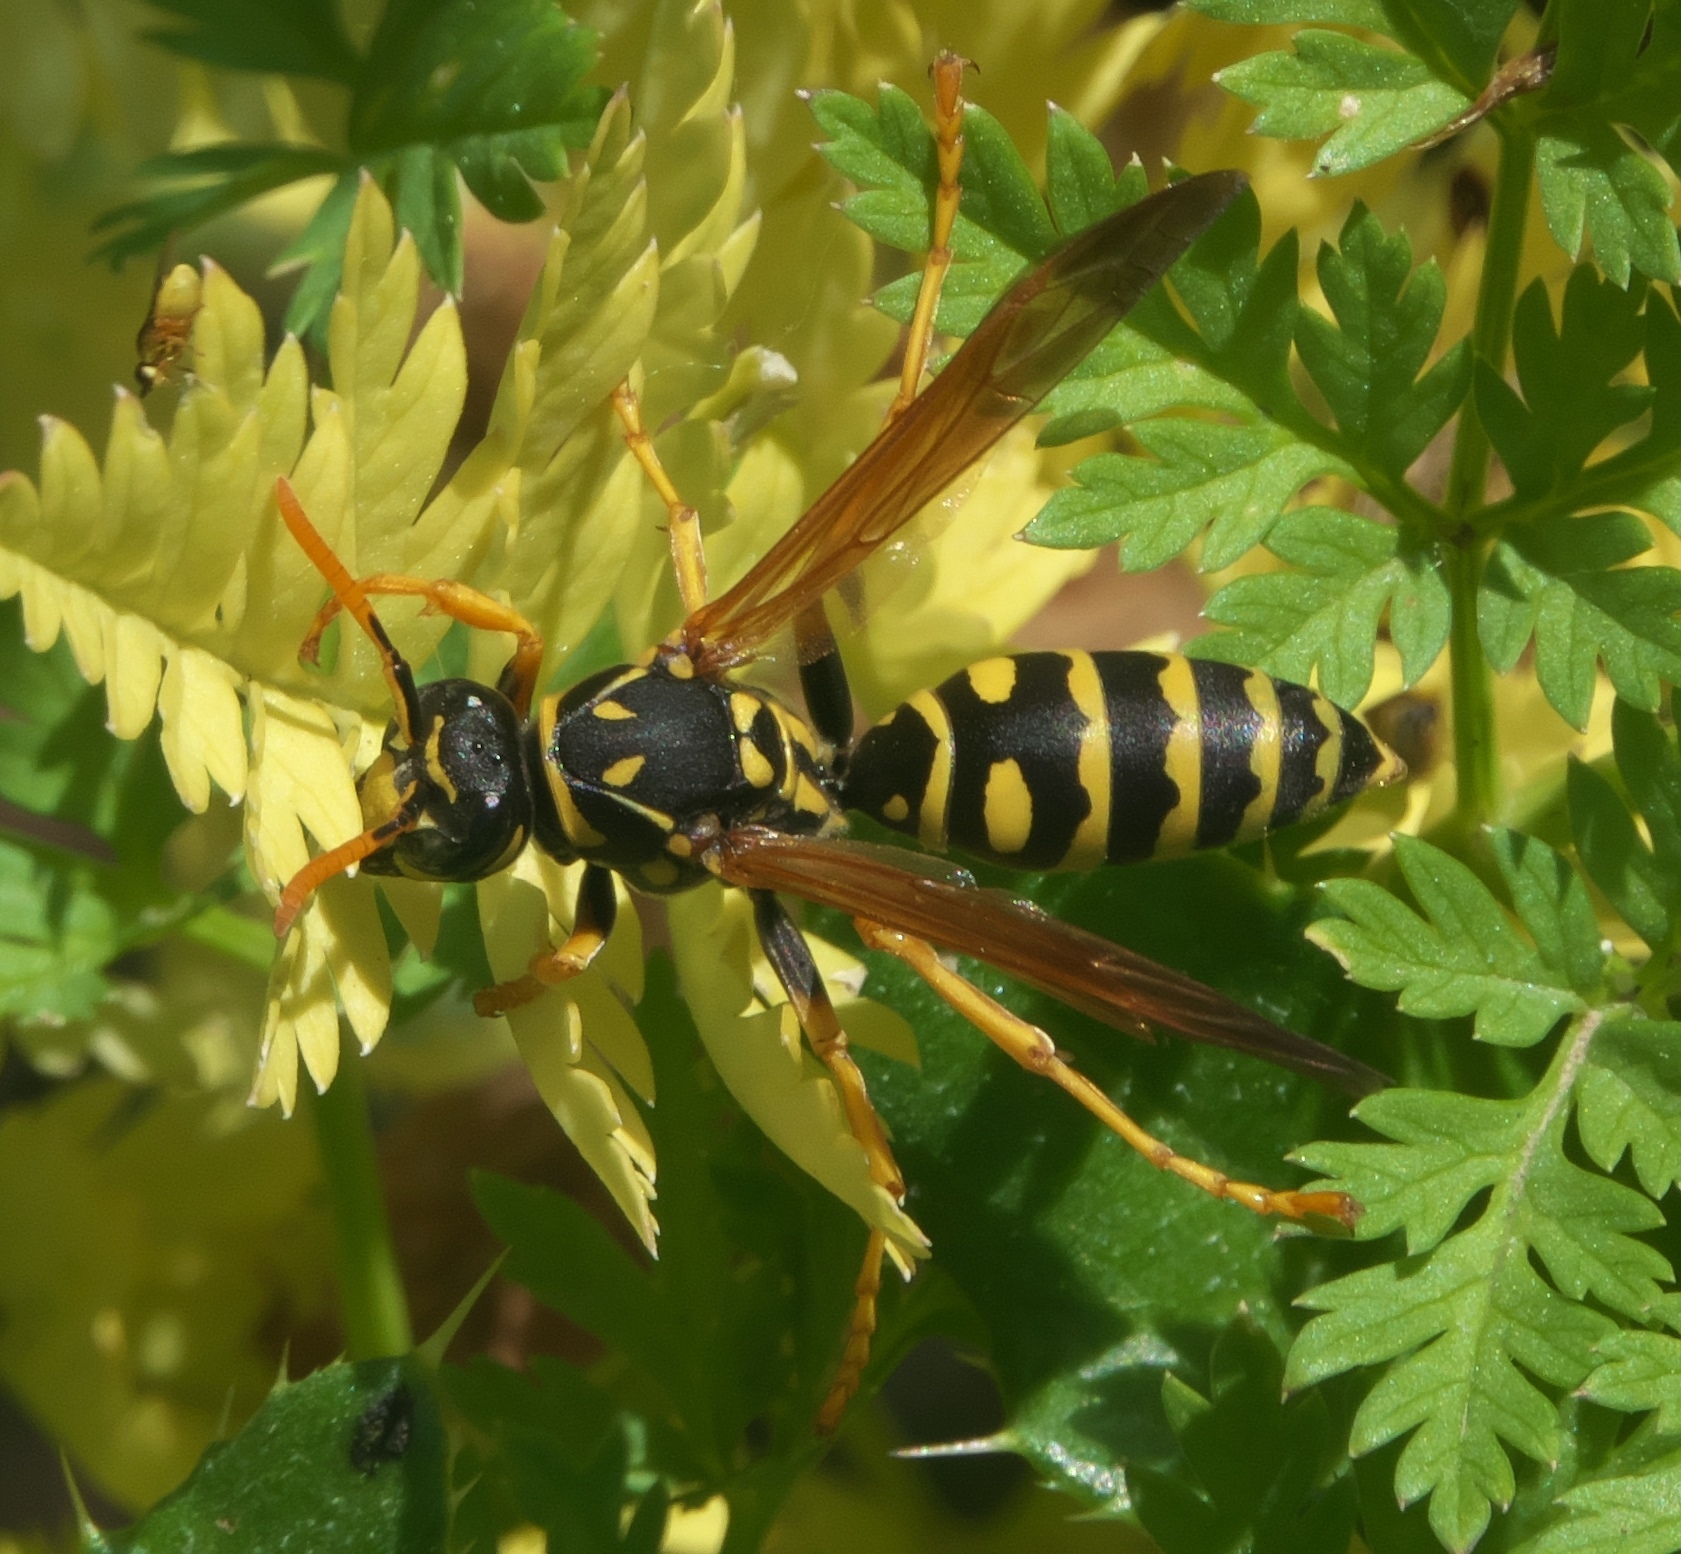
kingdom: Animalia
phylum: Arthropoda
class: Insecta
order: Hymenoptera
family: Eumenidae
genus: Polistes
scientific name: Polistes dominula
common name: Paper wasp
